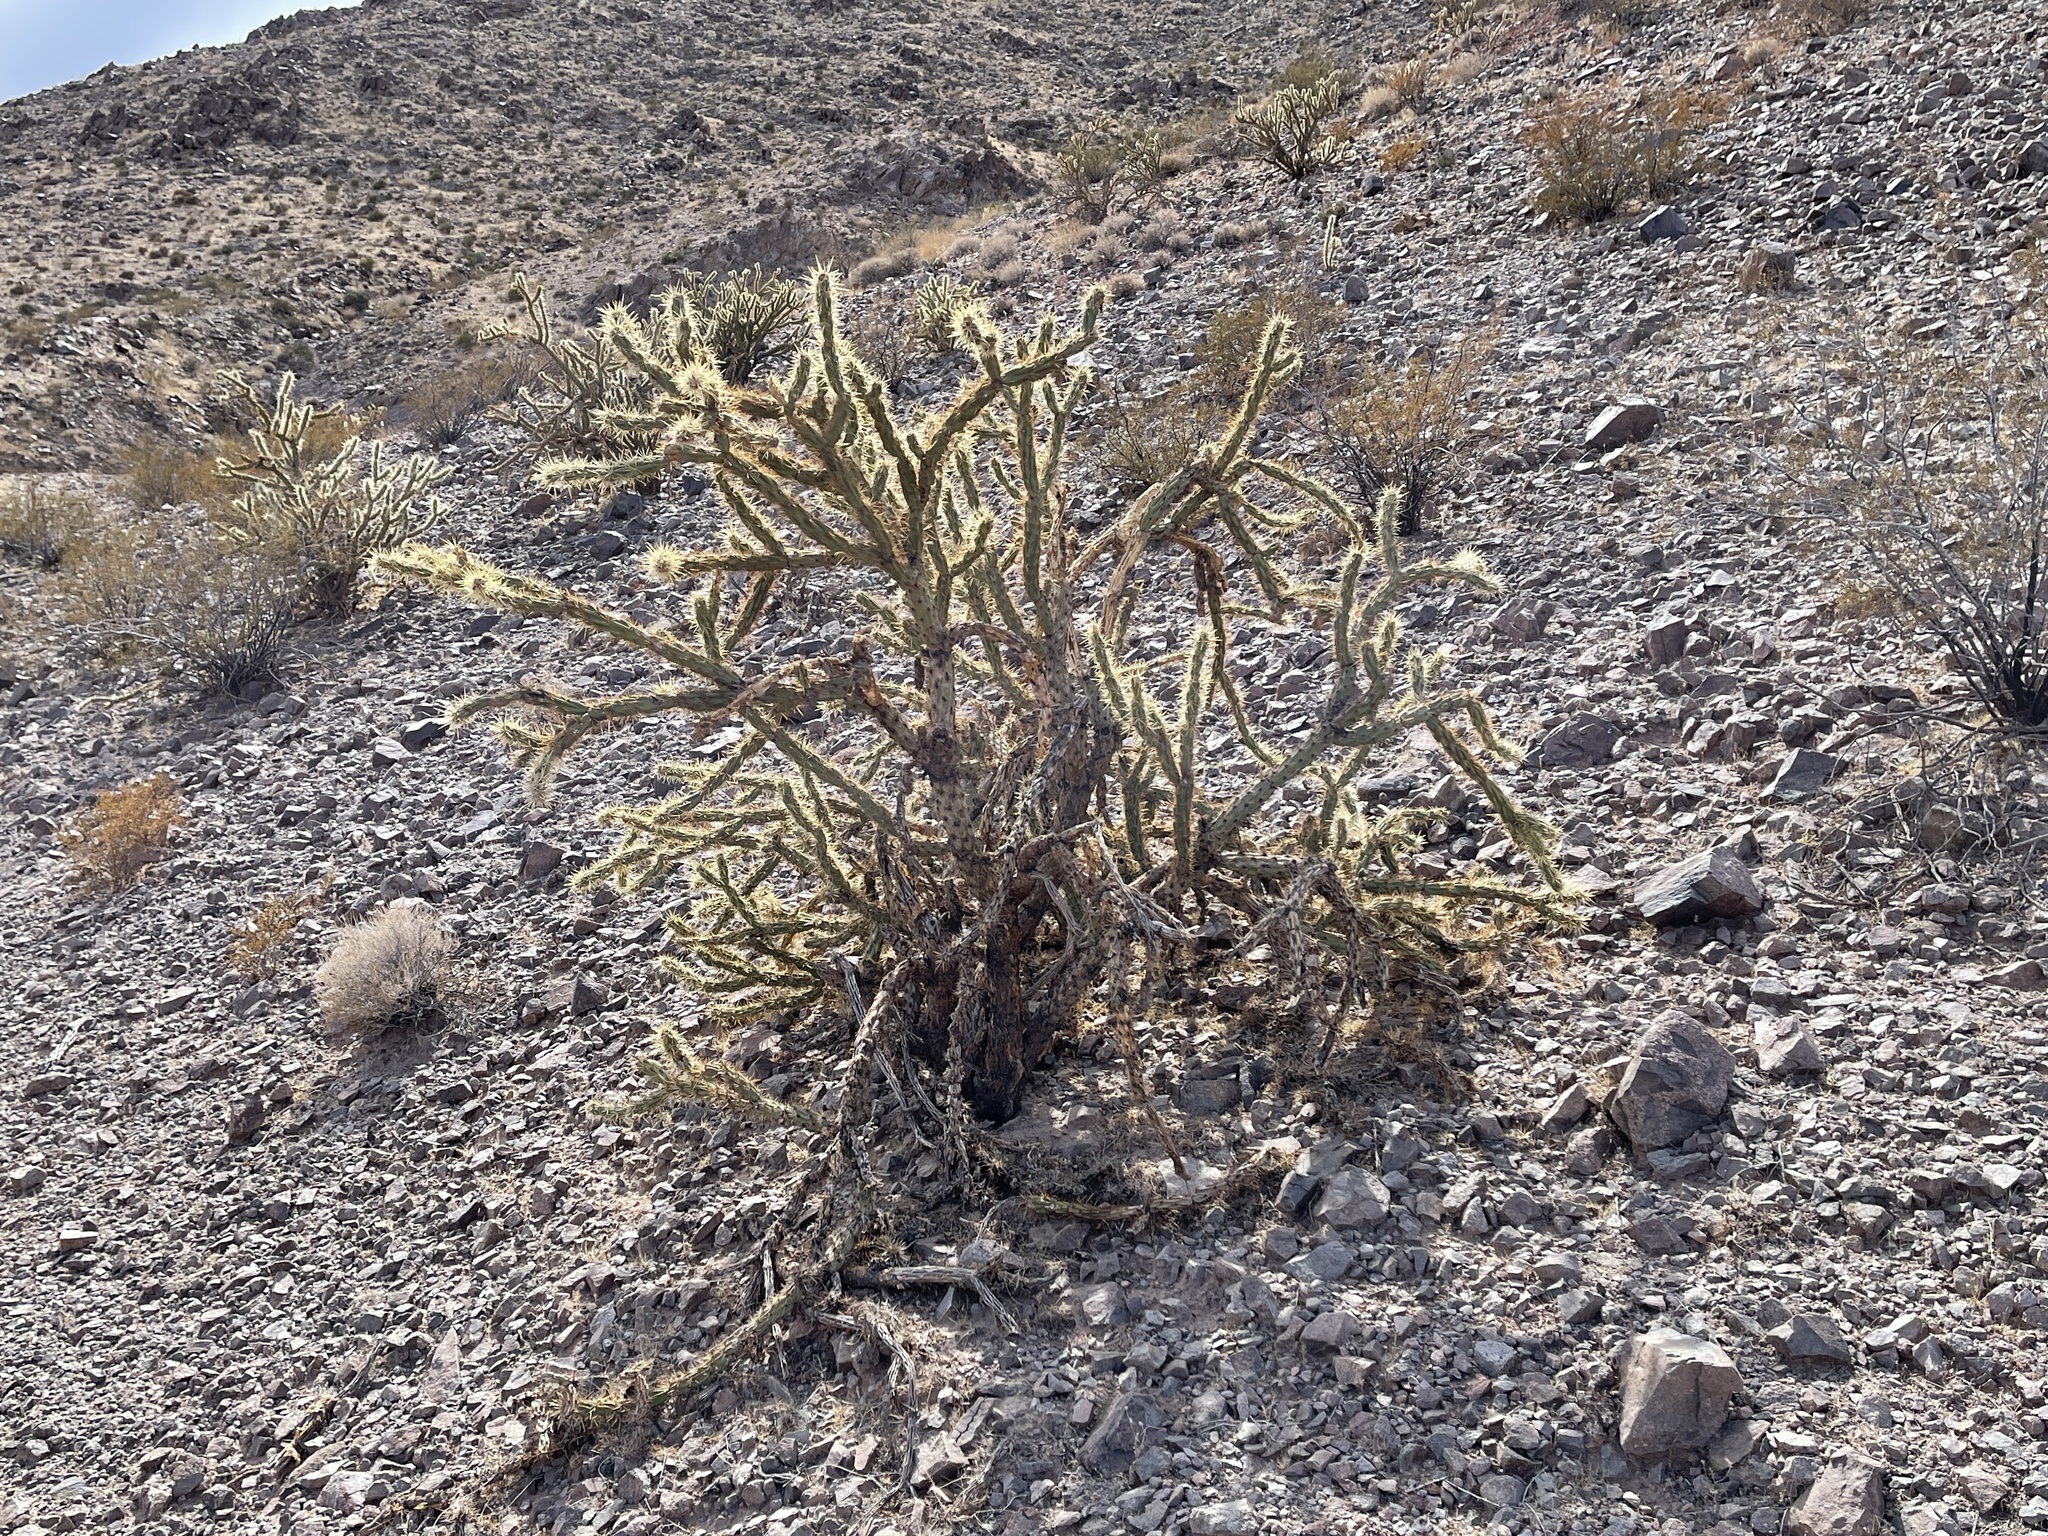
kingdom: Plantae
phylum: Tracheophyta
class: Magnoliopsida
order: Caryophyllales
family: Cactaceae
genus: Cylindropuntia
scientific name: Cylindropuntia acanthocarpa
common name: Buckhorn cholla
